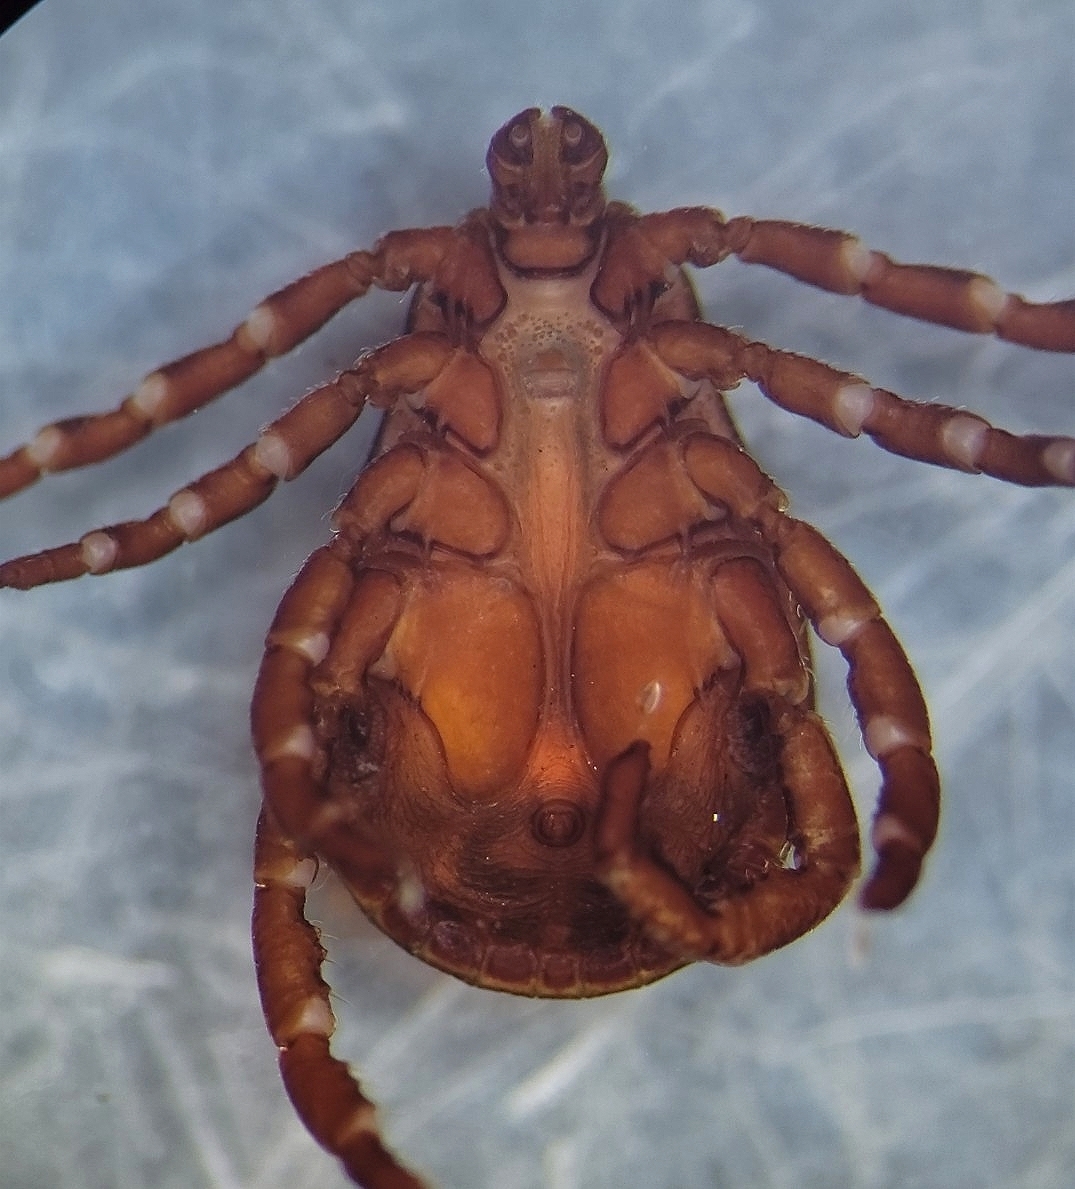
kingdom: Animalia
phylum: Arthropoda
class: Arachnida
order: Ixodida
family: Ixodidae
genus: Dermacentor
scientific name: Dermacentor andersoni
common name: Rocky mountain wood tick
